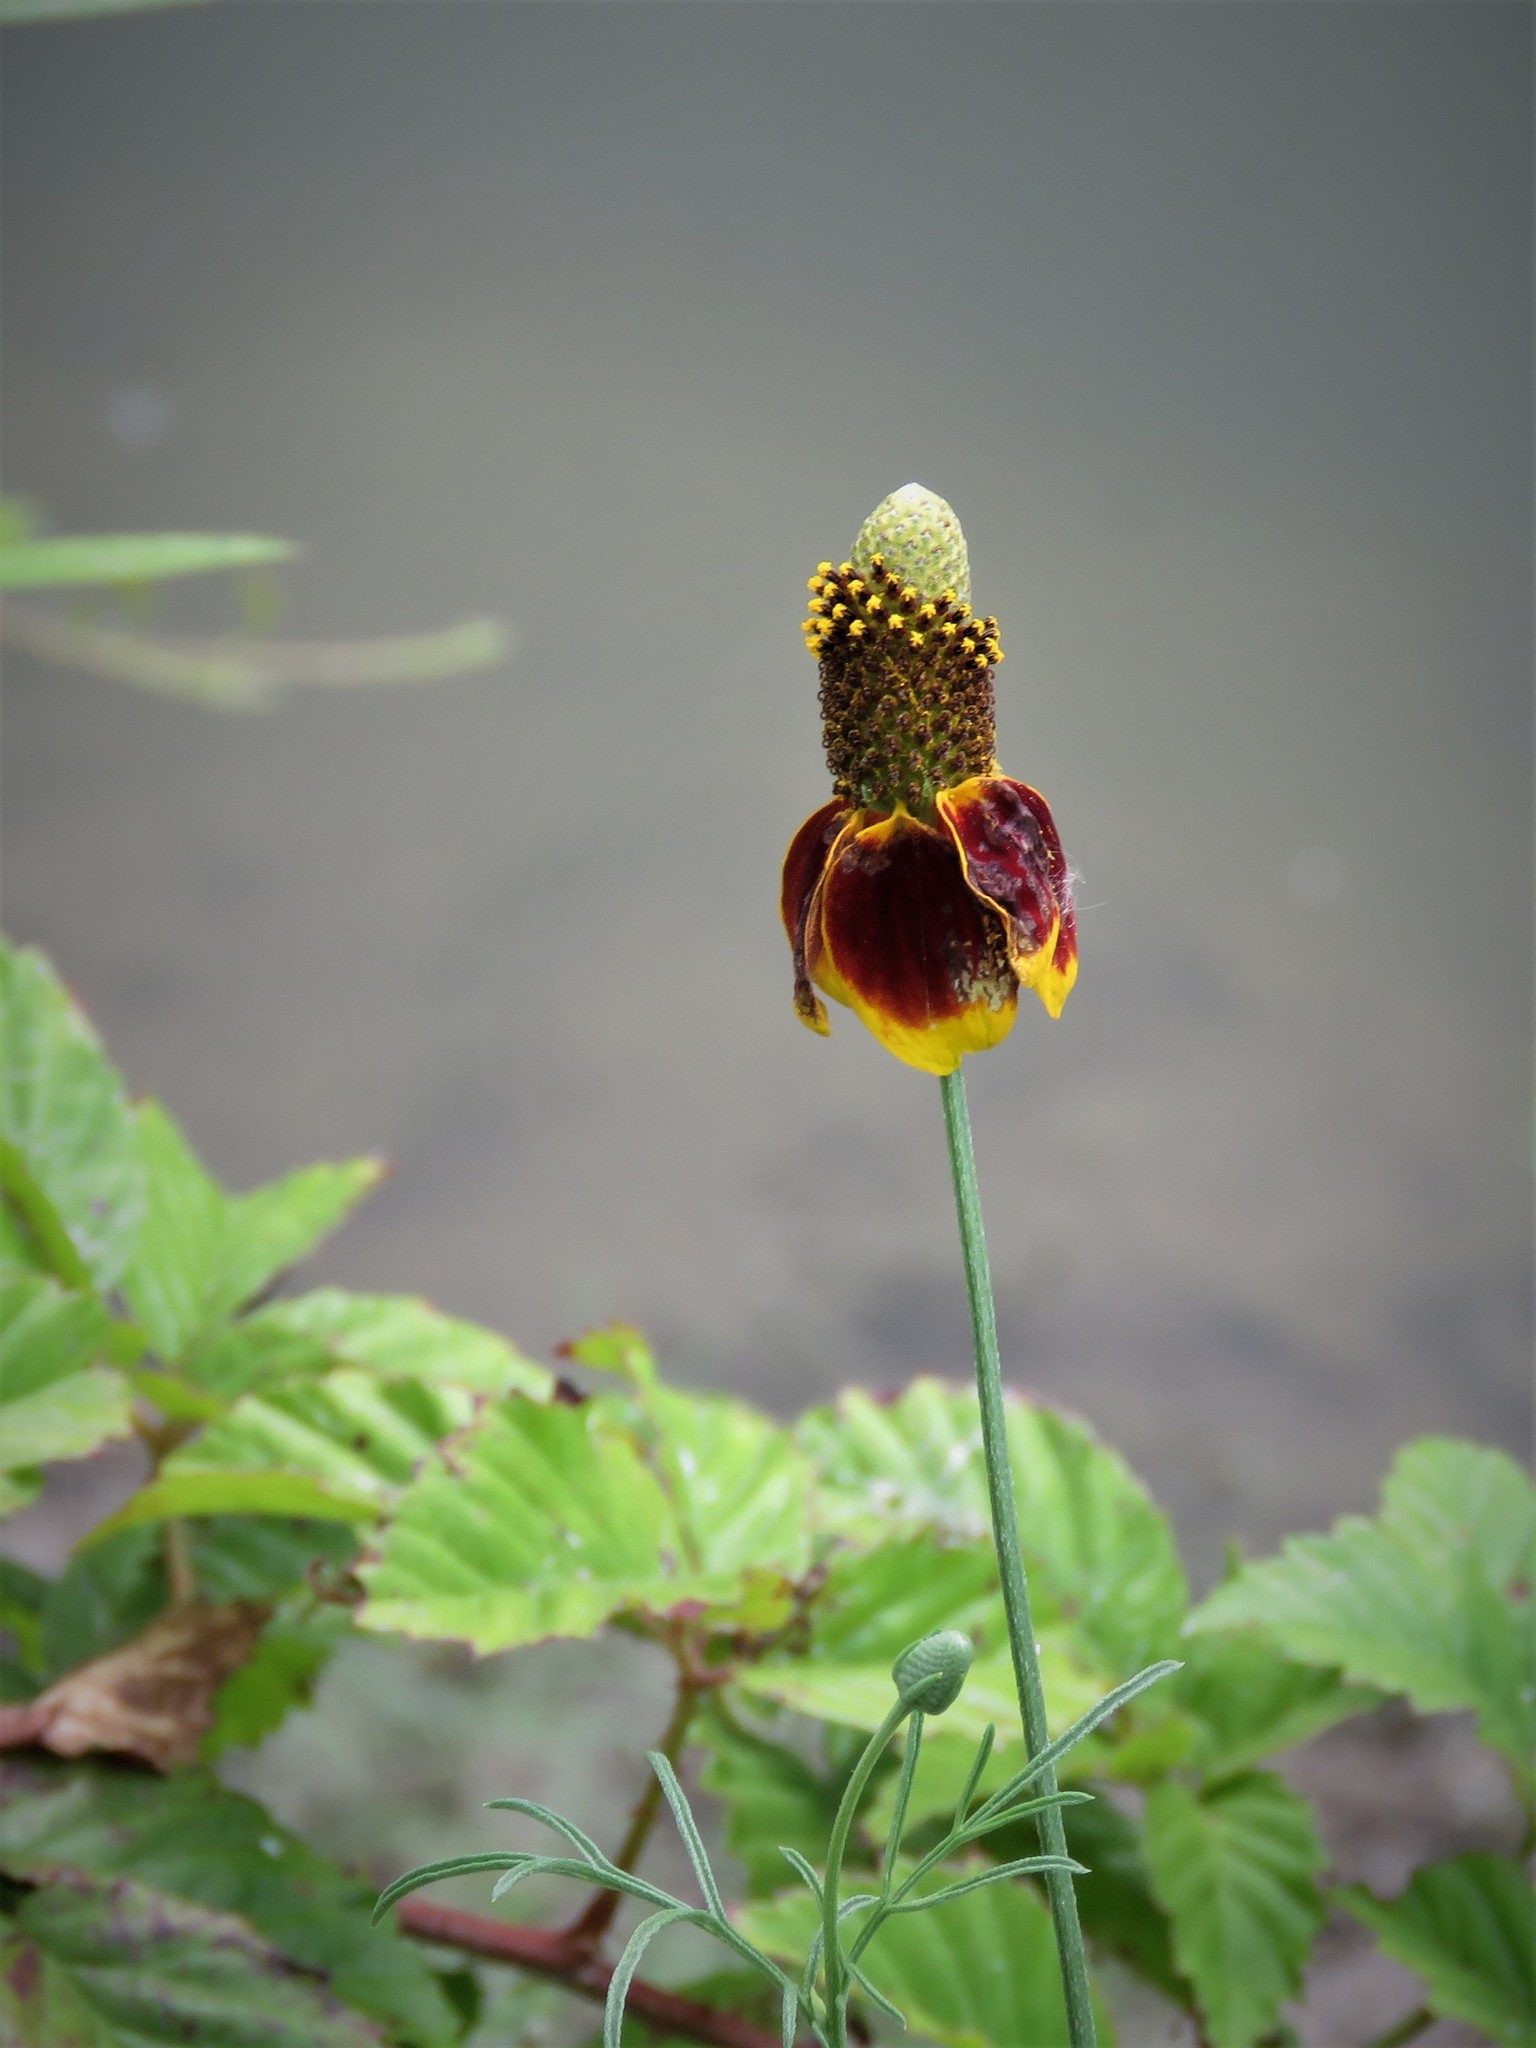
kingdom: Plantae
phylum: Tracheophyta
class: Magnoliopsida
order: Asterales
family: Asteraceae
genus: Ratibida
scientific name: Ratibida columnifera
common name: Prairie coneflower
